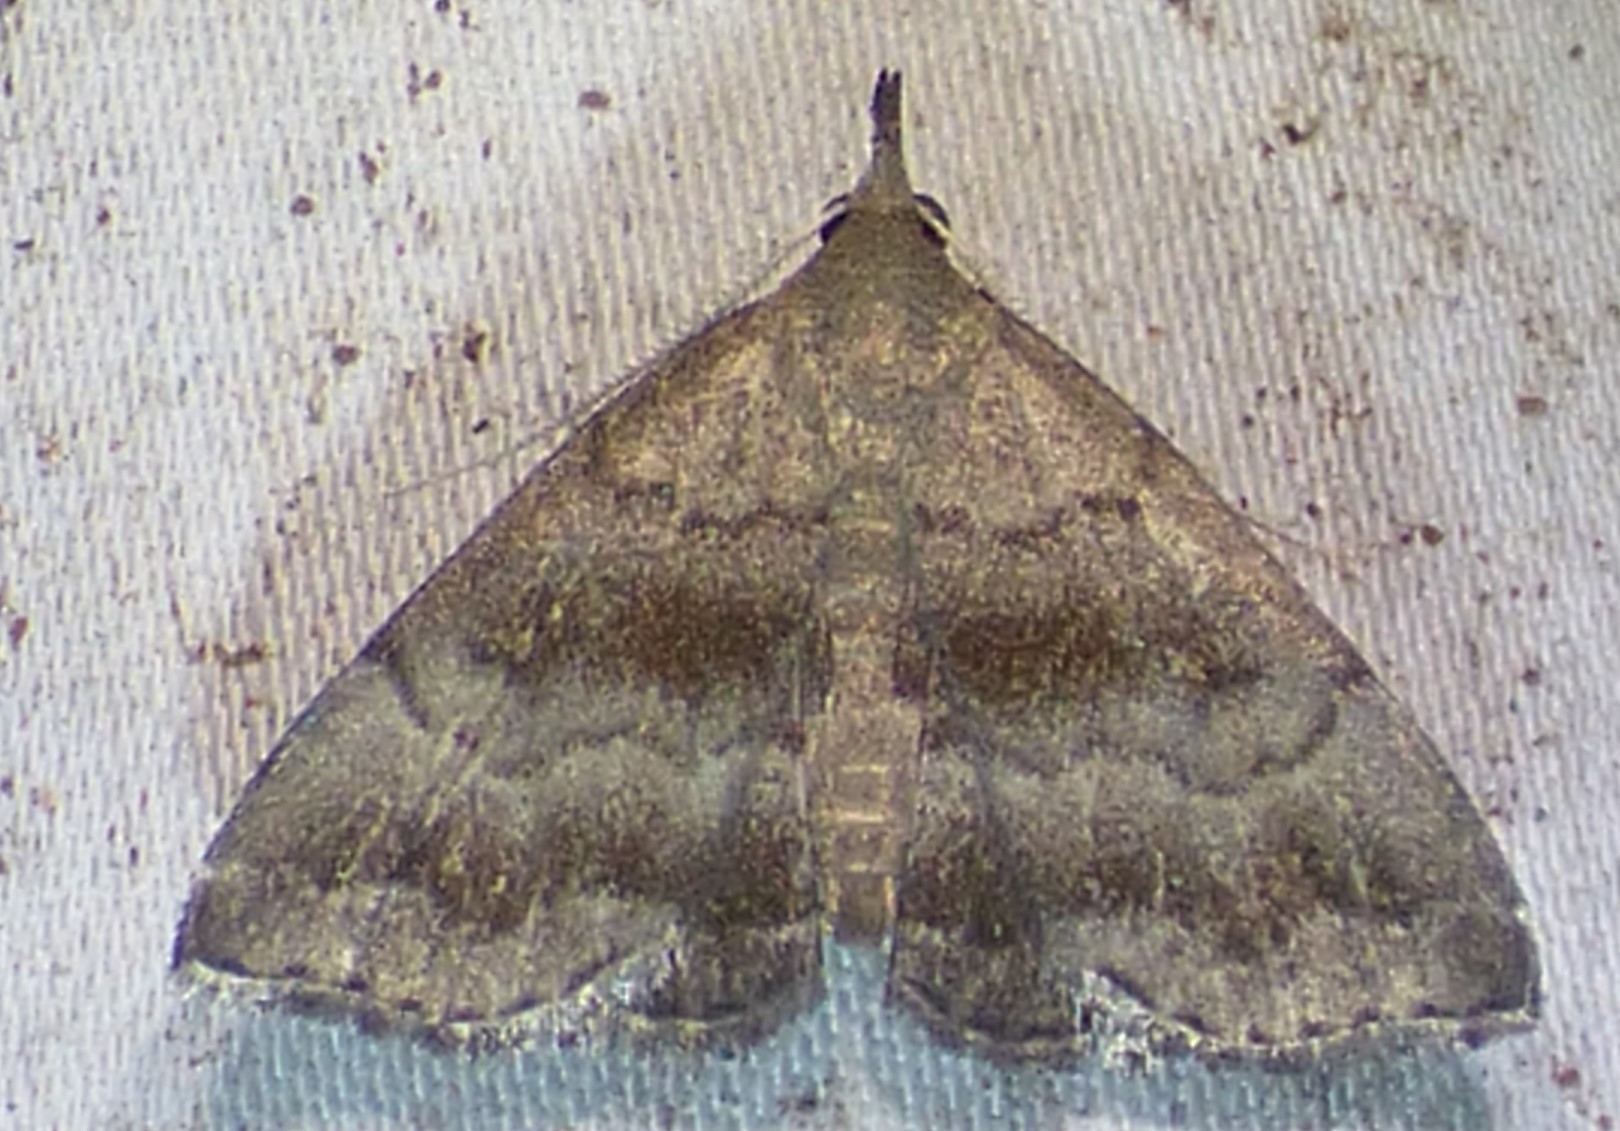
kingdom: Animalia
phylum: Arthropoda
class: Insecta
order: Lepidoptera
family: Erebidae
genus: Phalaenostola
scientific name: Phalaenostola larentioides
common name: Black-banded owlet
